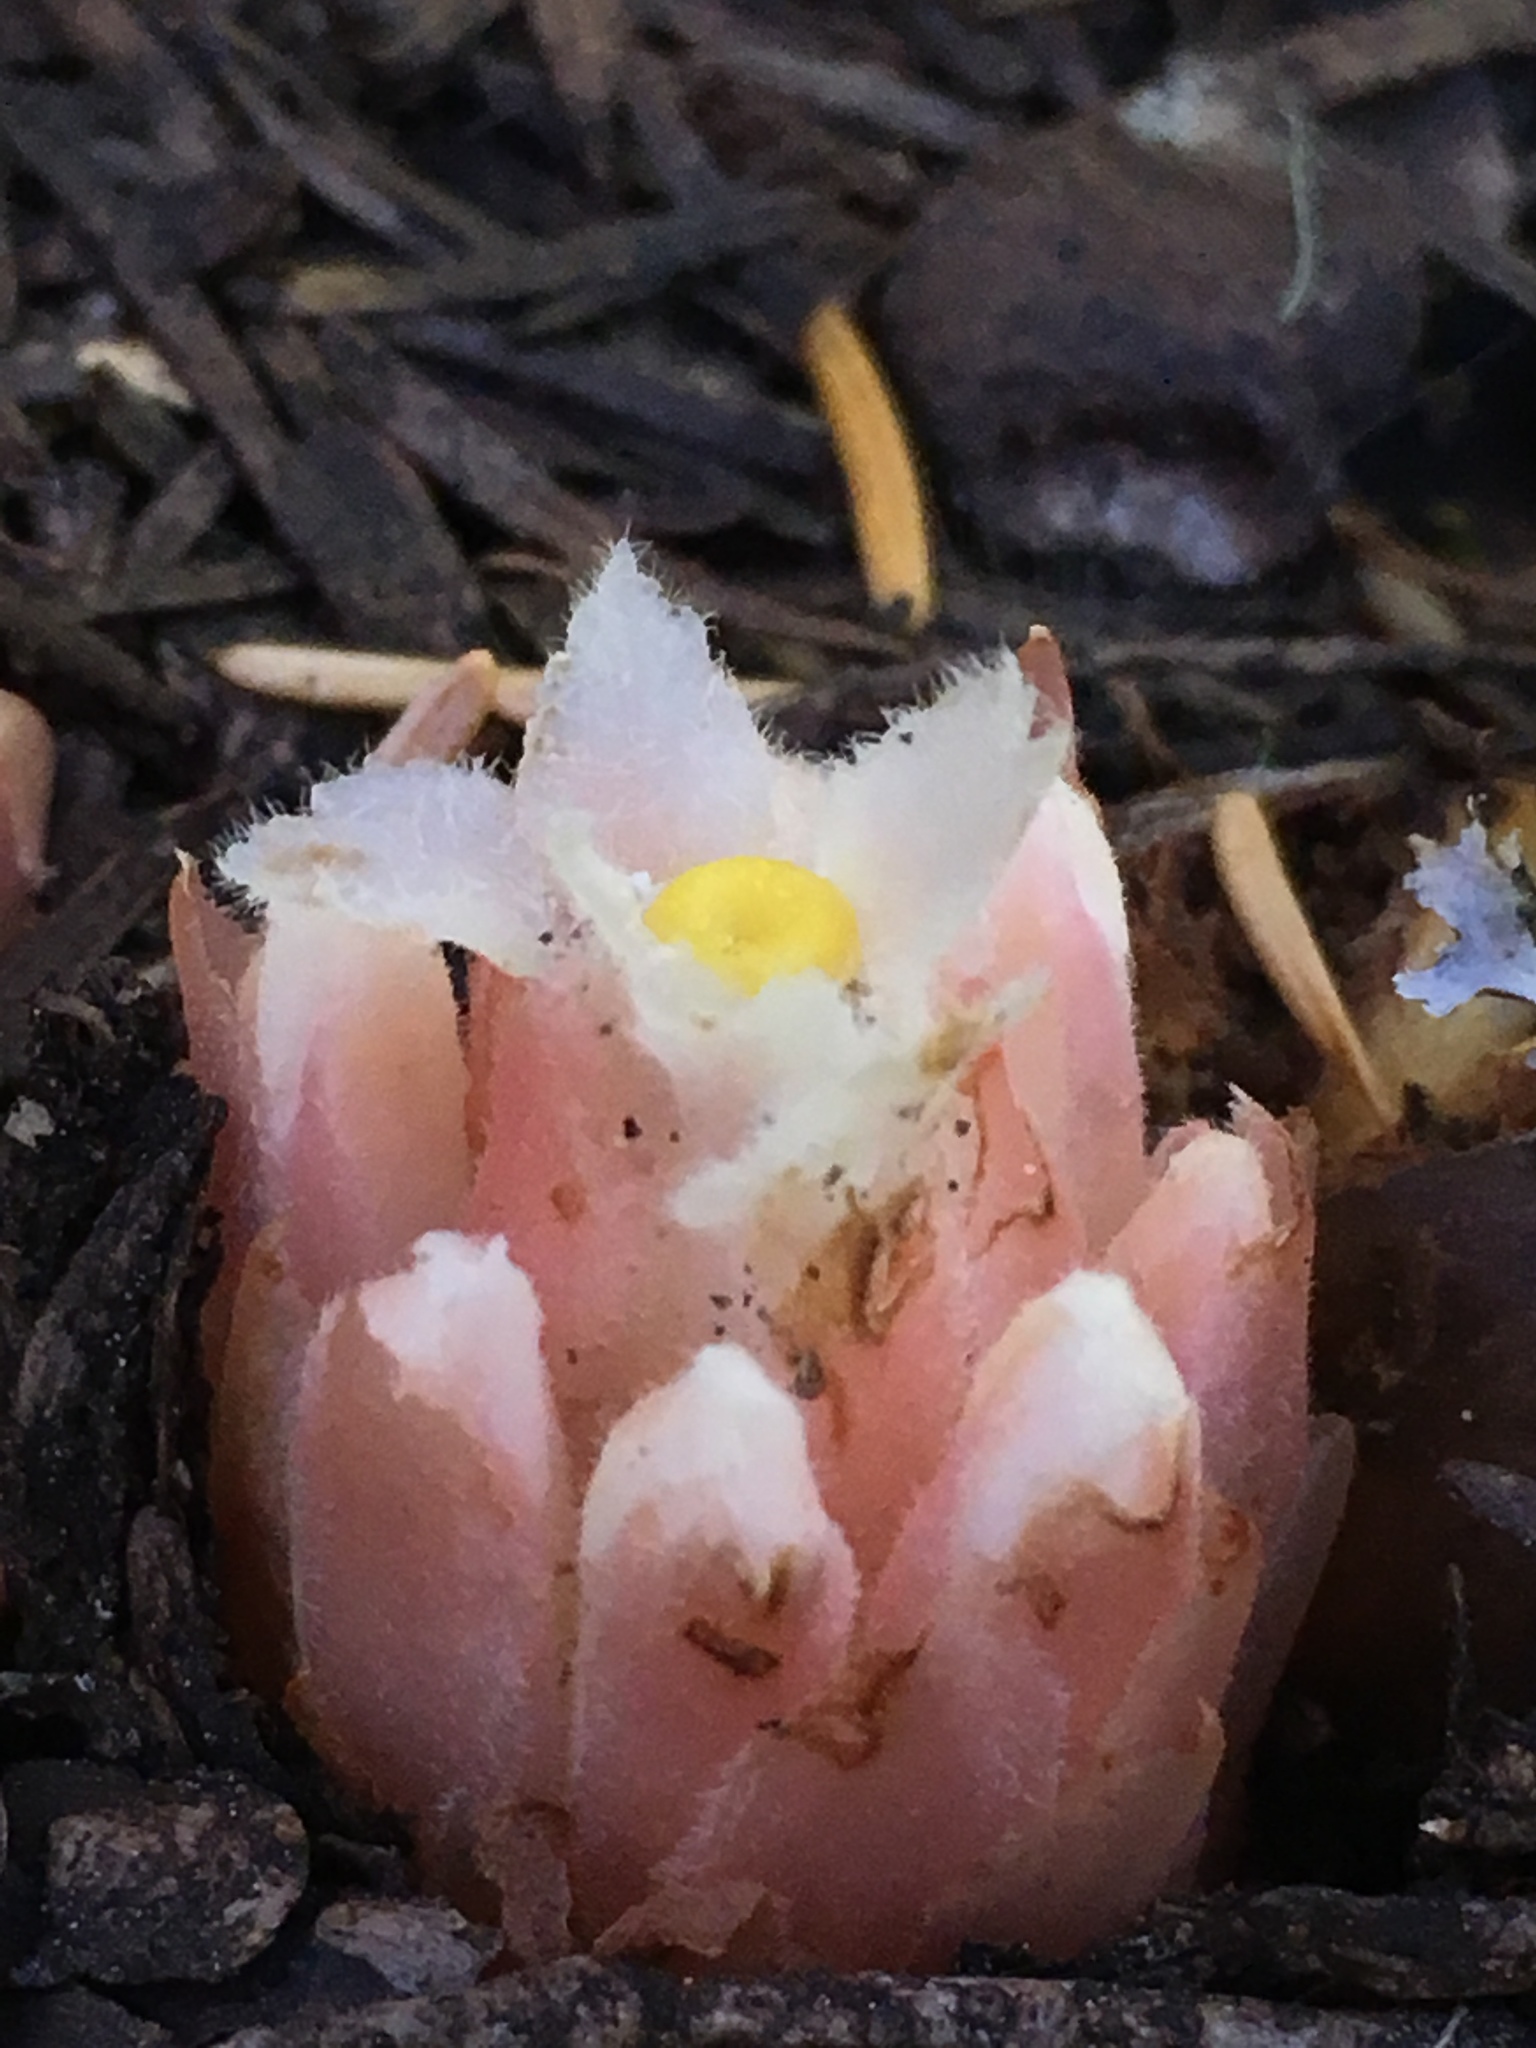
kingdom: Plantae
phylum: Tracheophyta
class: Magnoliopsida
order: Ericales
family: Ericaceae
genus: Hemitomes
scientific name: Hemitomes congestum
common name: Cone plant
